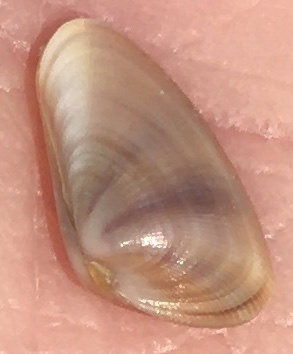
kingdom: Animalia
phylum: Mollusca
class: Bivalvia
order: Cardiida
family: Donacidae
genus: Donax
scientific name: Donax variabilis
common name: Butterfly shell
